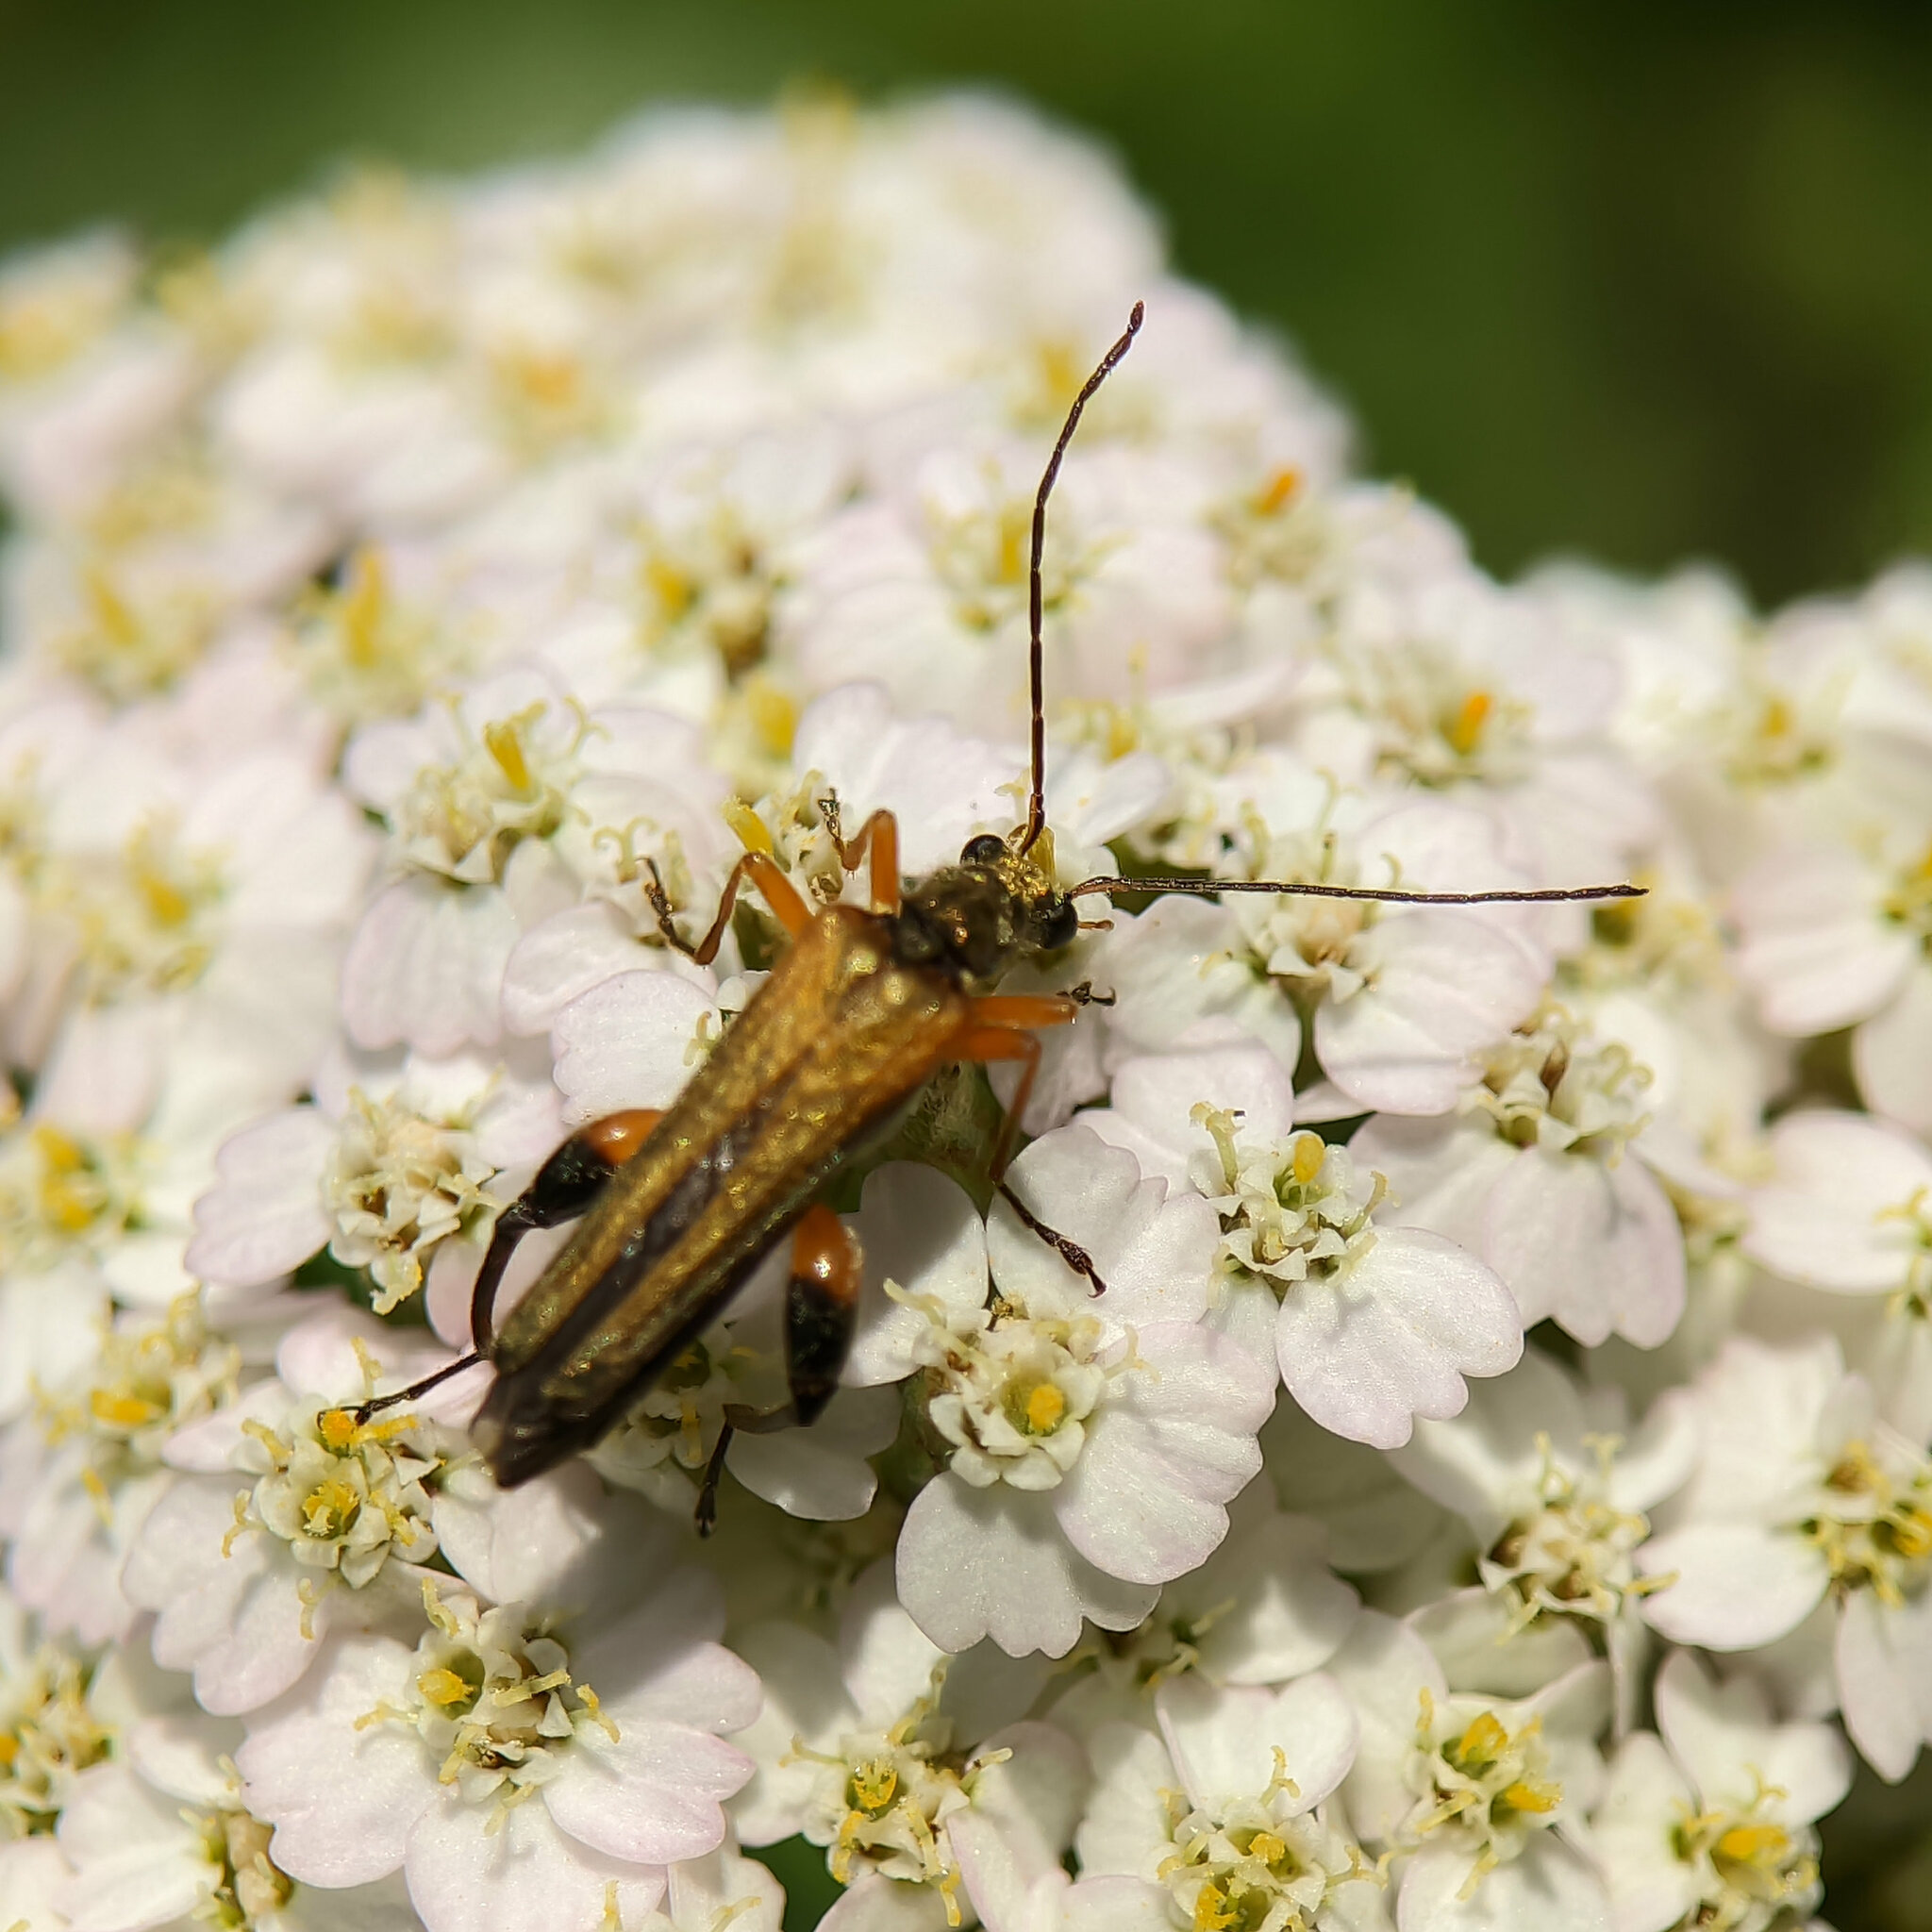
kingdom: Animalia
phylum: Arthropoda
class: Insecta
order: Coleoptera
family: Oedemeridae
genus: Oedemera
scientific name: Oedemera podagrariae
